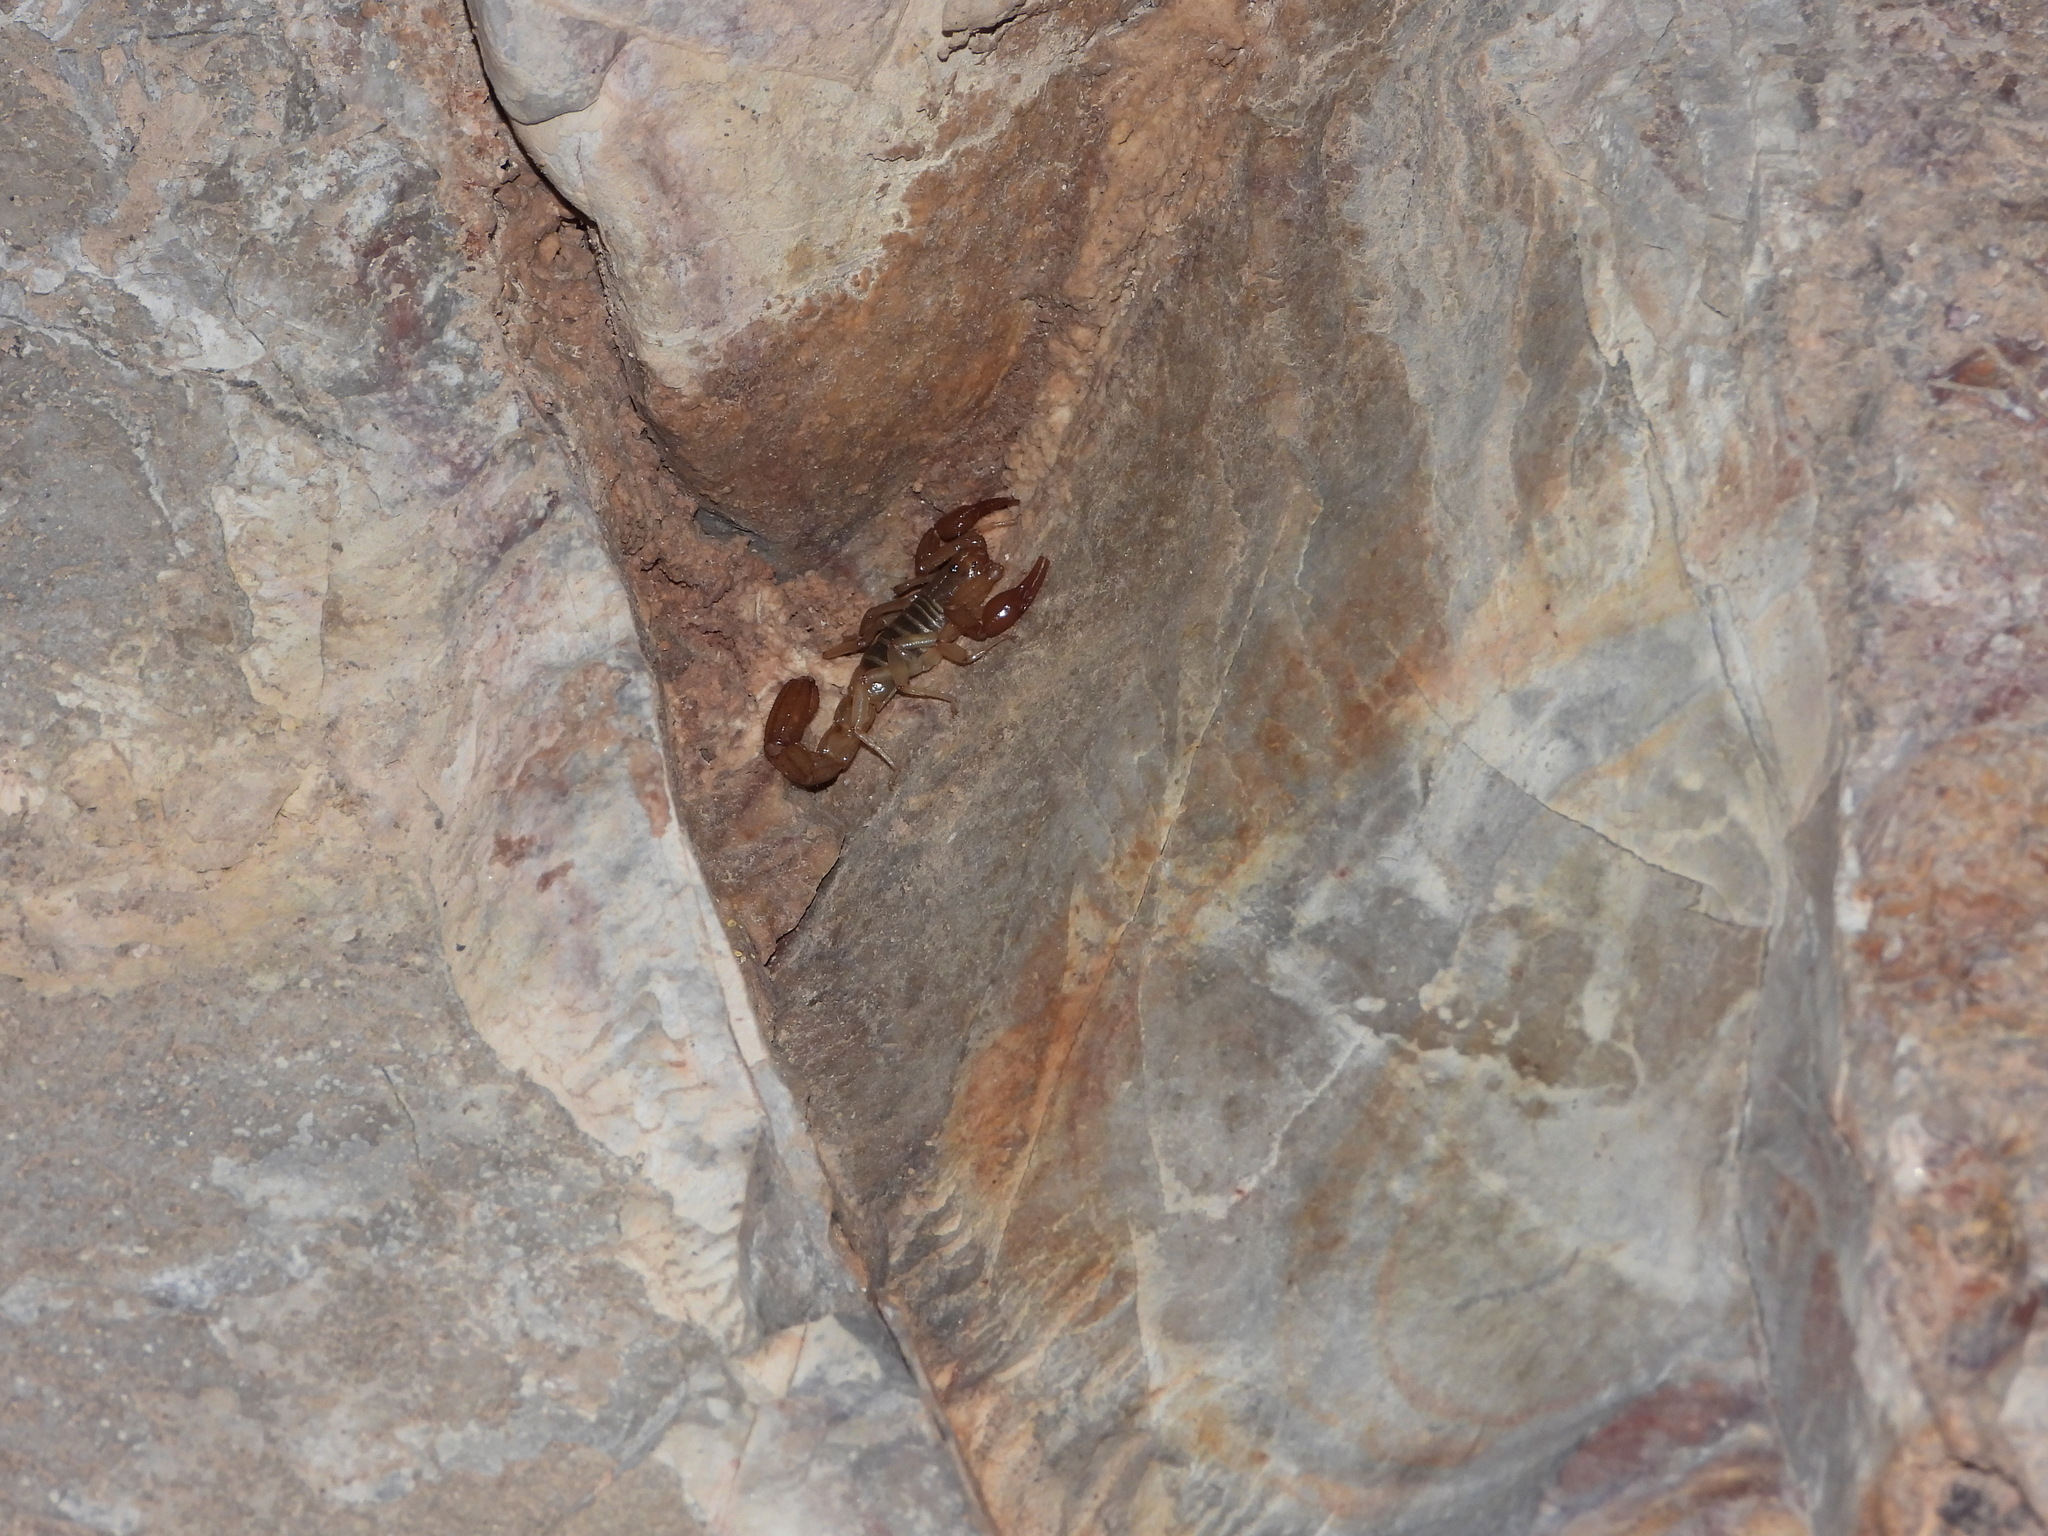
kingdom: Animalia
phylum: Arthropoda
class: Arachnida
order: Scorpiones
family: Diplocentridae
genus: Diplocentrus
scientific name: Diplocentrus lindo
